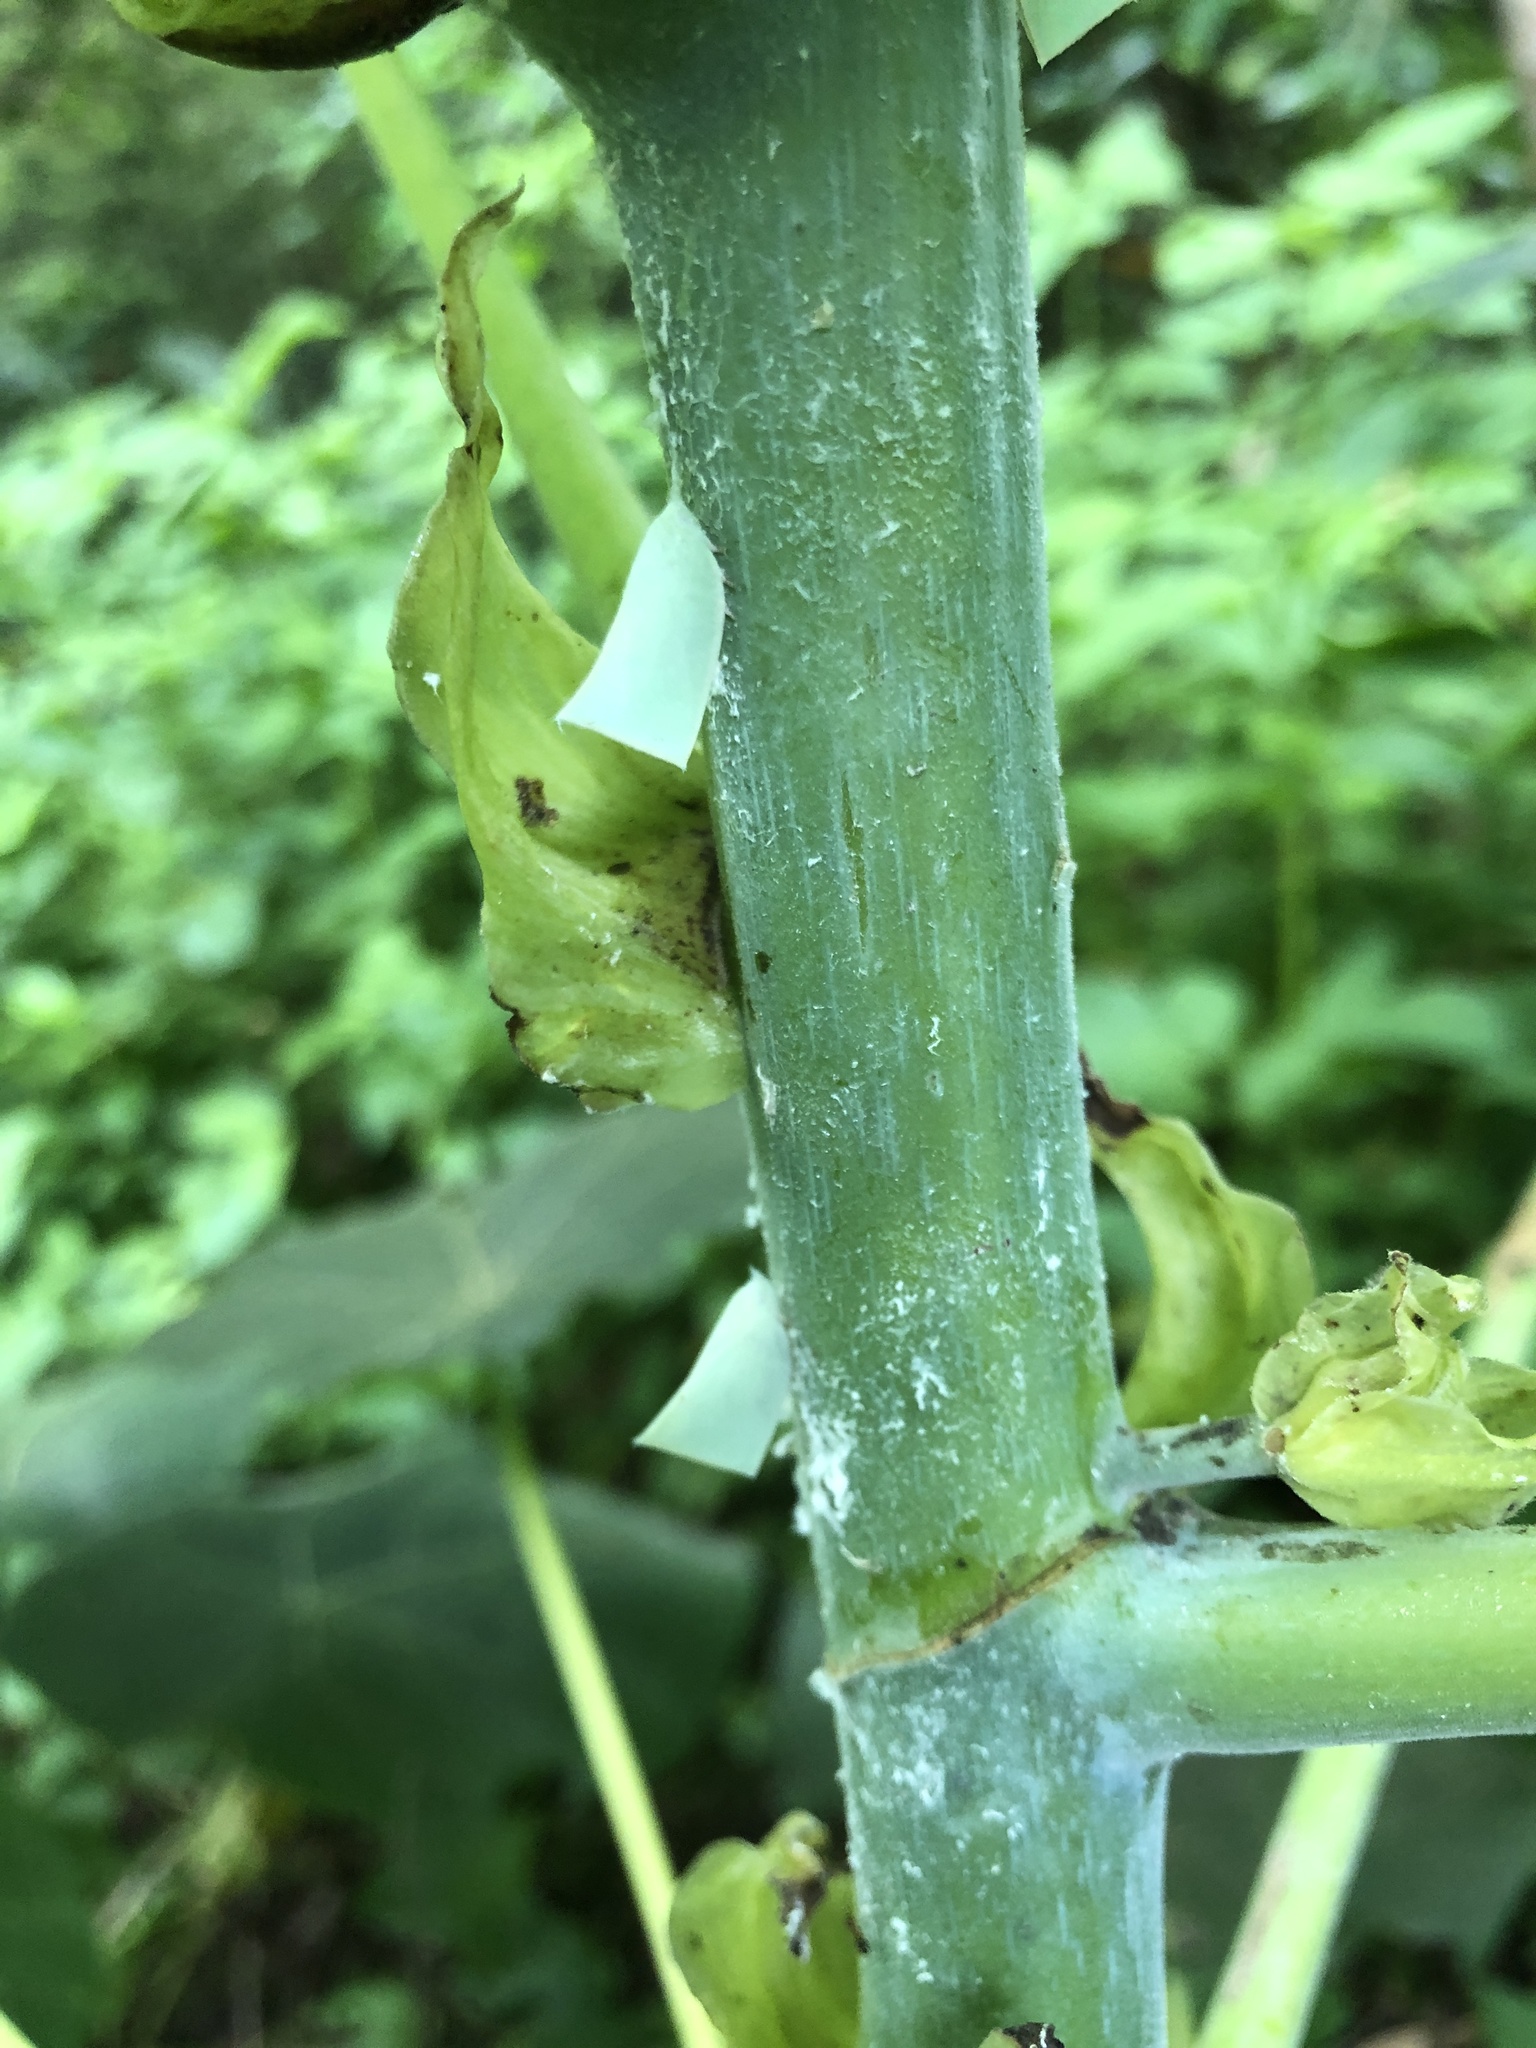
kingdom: Animalia
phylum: Arthropoda
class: Insecta
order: Hemiptera
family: Flatidae
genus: Phylliana
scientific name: Phylliana alba
